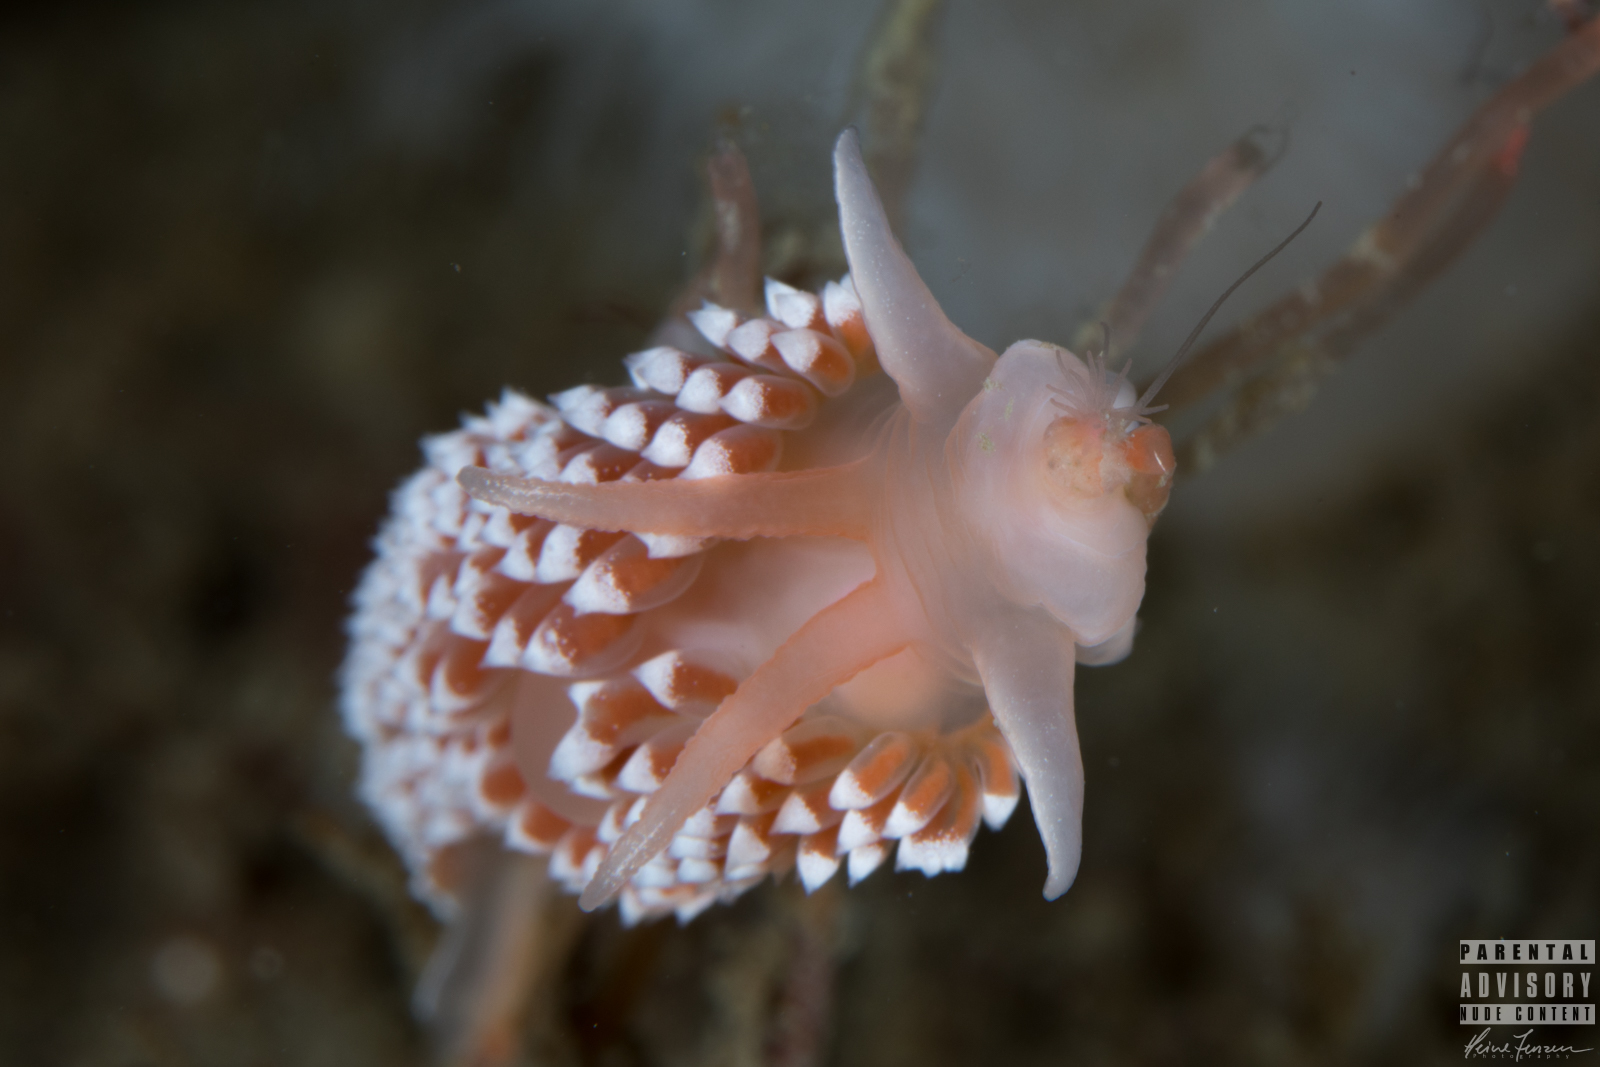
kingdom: Animalia
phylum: Mollusca
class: Gastropoda
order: Nudibranchia
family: Coryphellidae
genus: Coryphella
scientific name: Coryphella verrucosa
